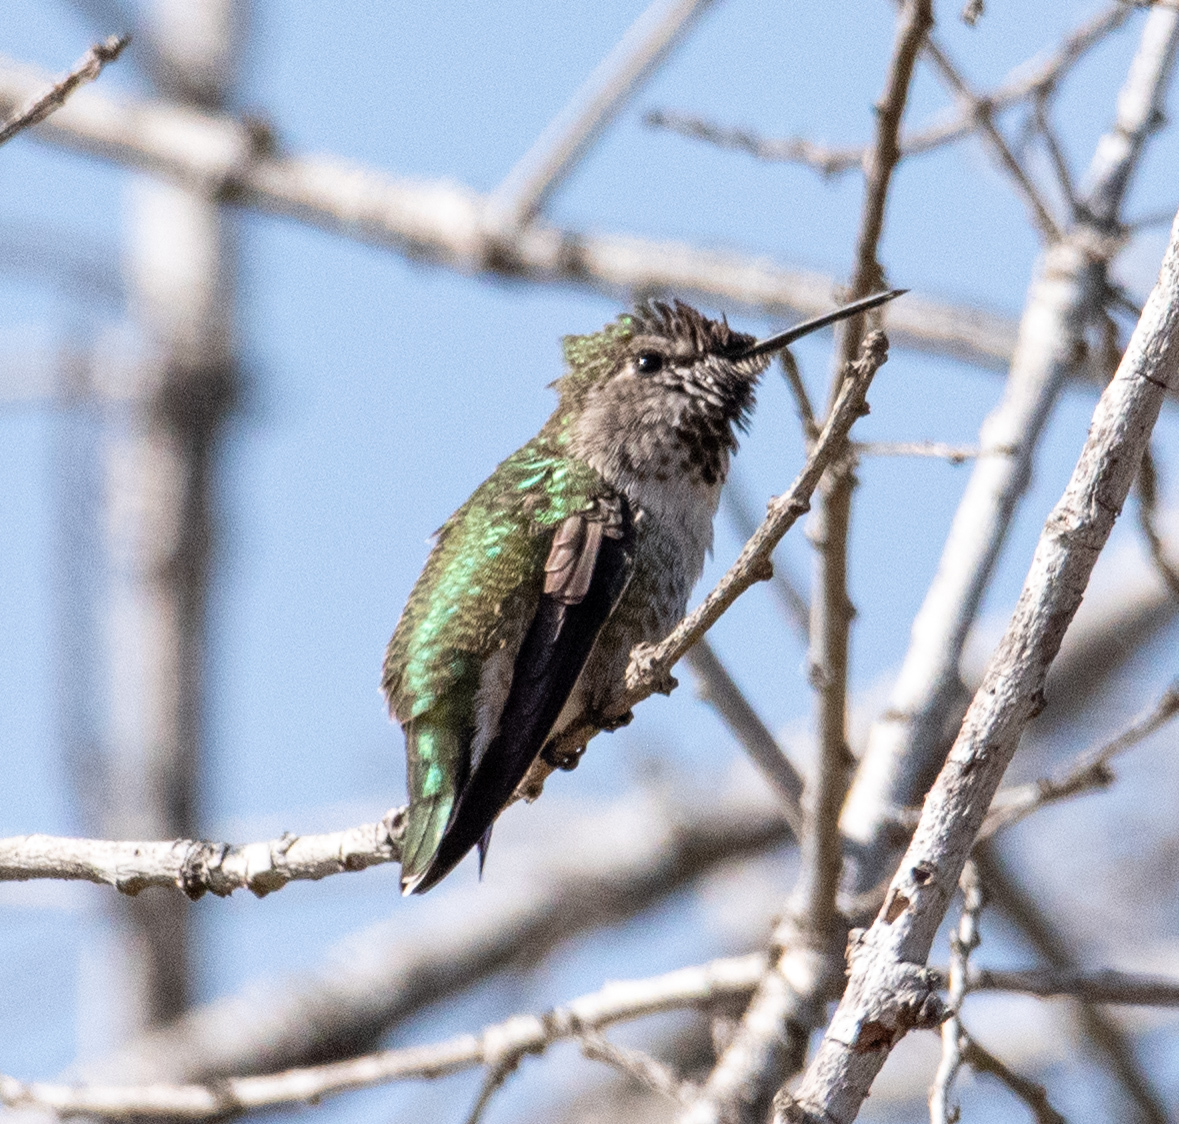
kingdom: Animalia
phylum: Chordata
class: Aves
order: Apodiformes
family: Trochilidae
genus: Calypte
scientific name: Calypte anna
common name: Anna's hummingbird
